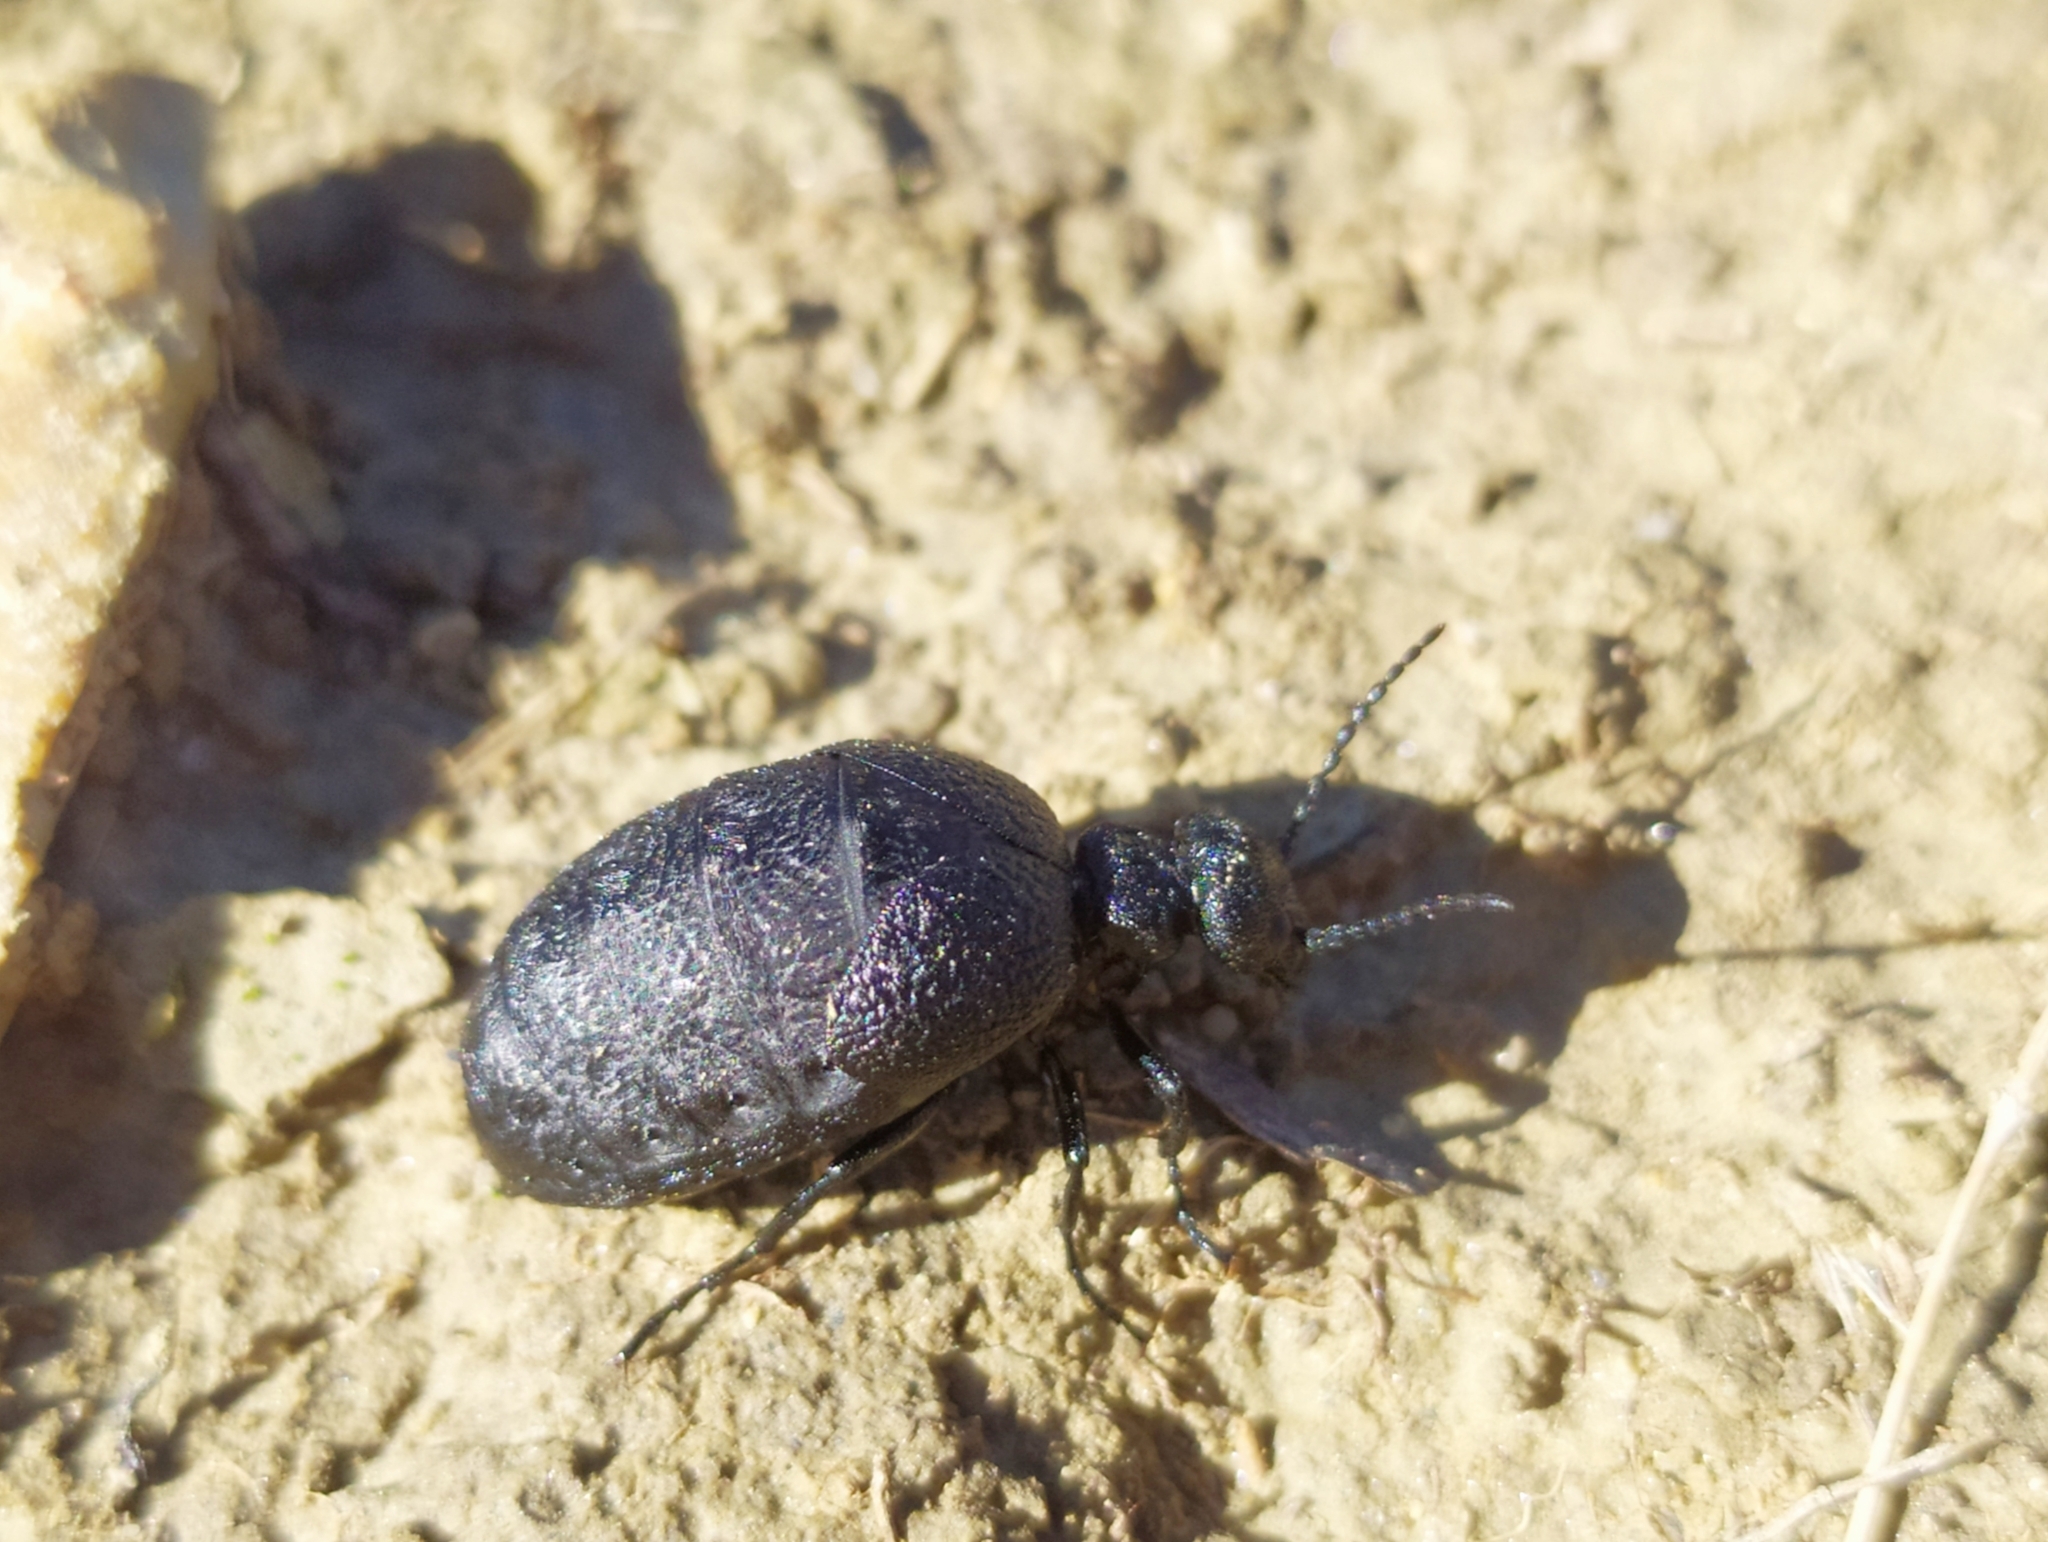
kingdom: Animalia
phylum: Arthropoda
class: Insecta
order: Coleoptera
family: Meloidae
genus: Meloe
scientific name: Meloe rugosus
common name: Rugged oil-beetle
